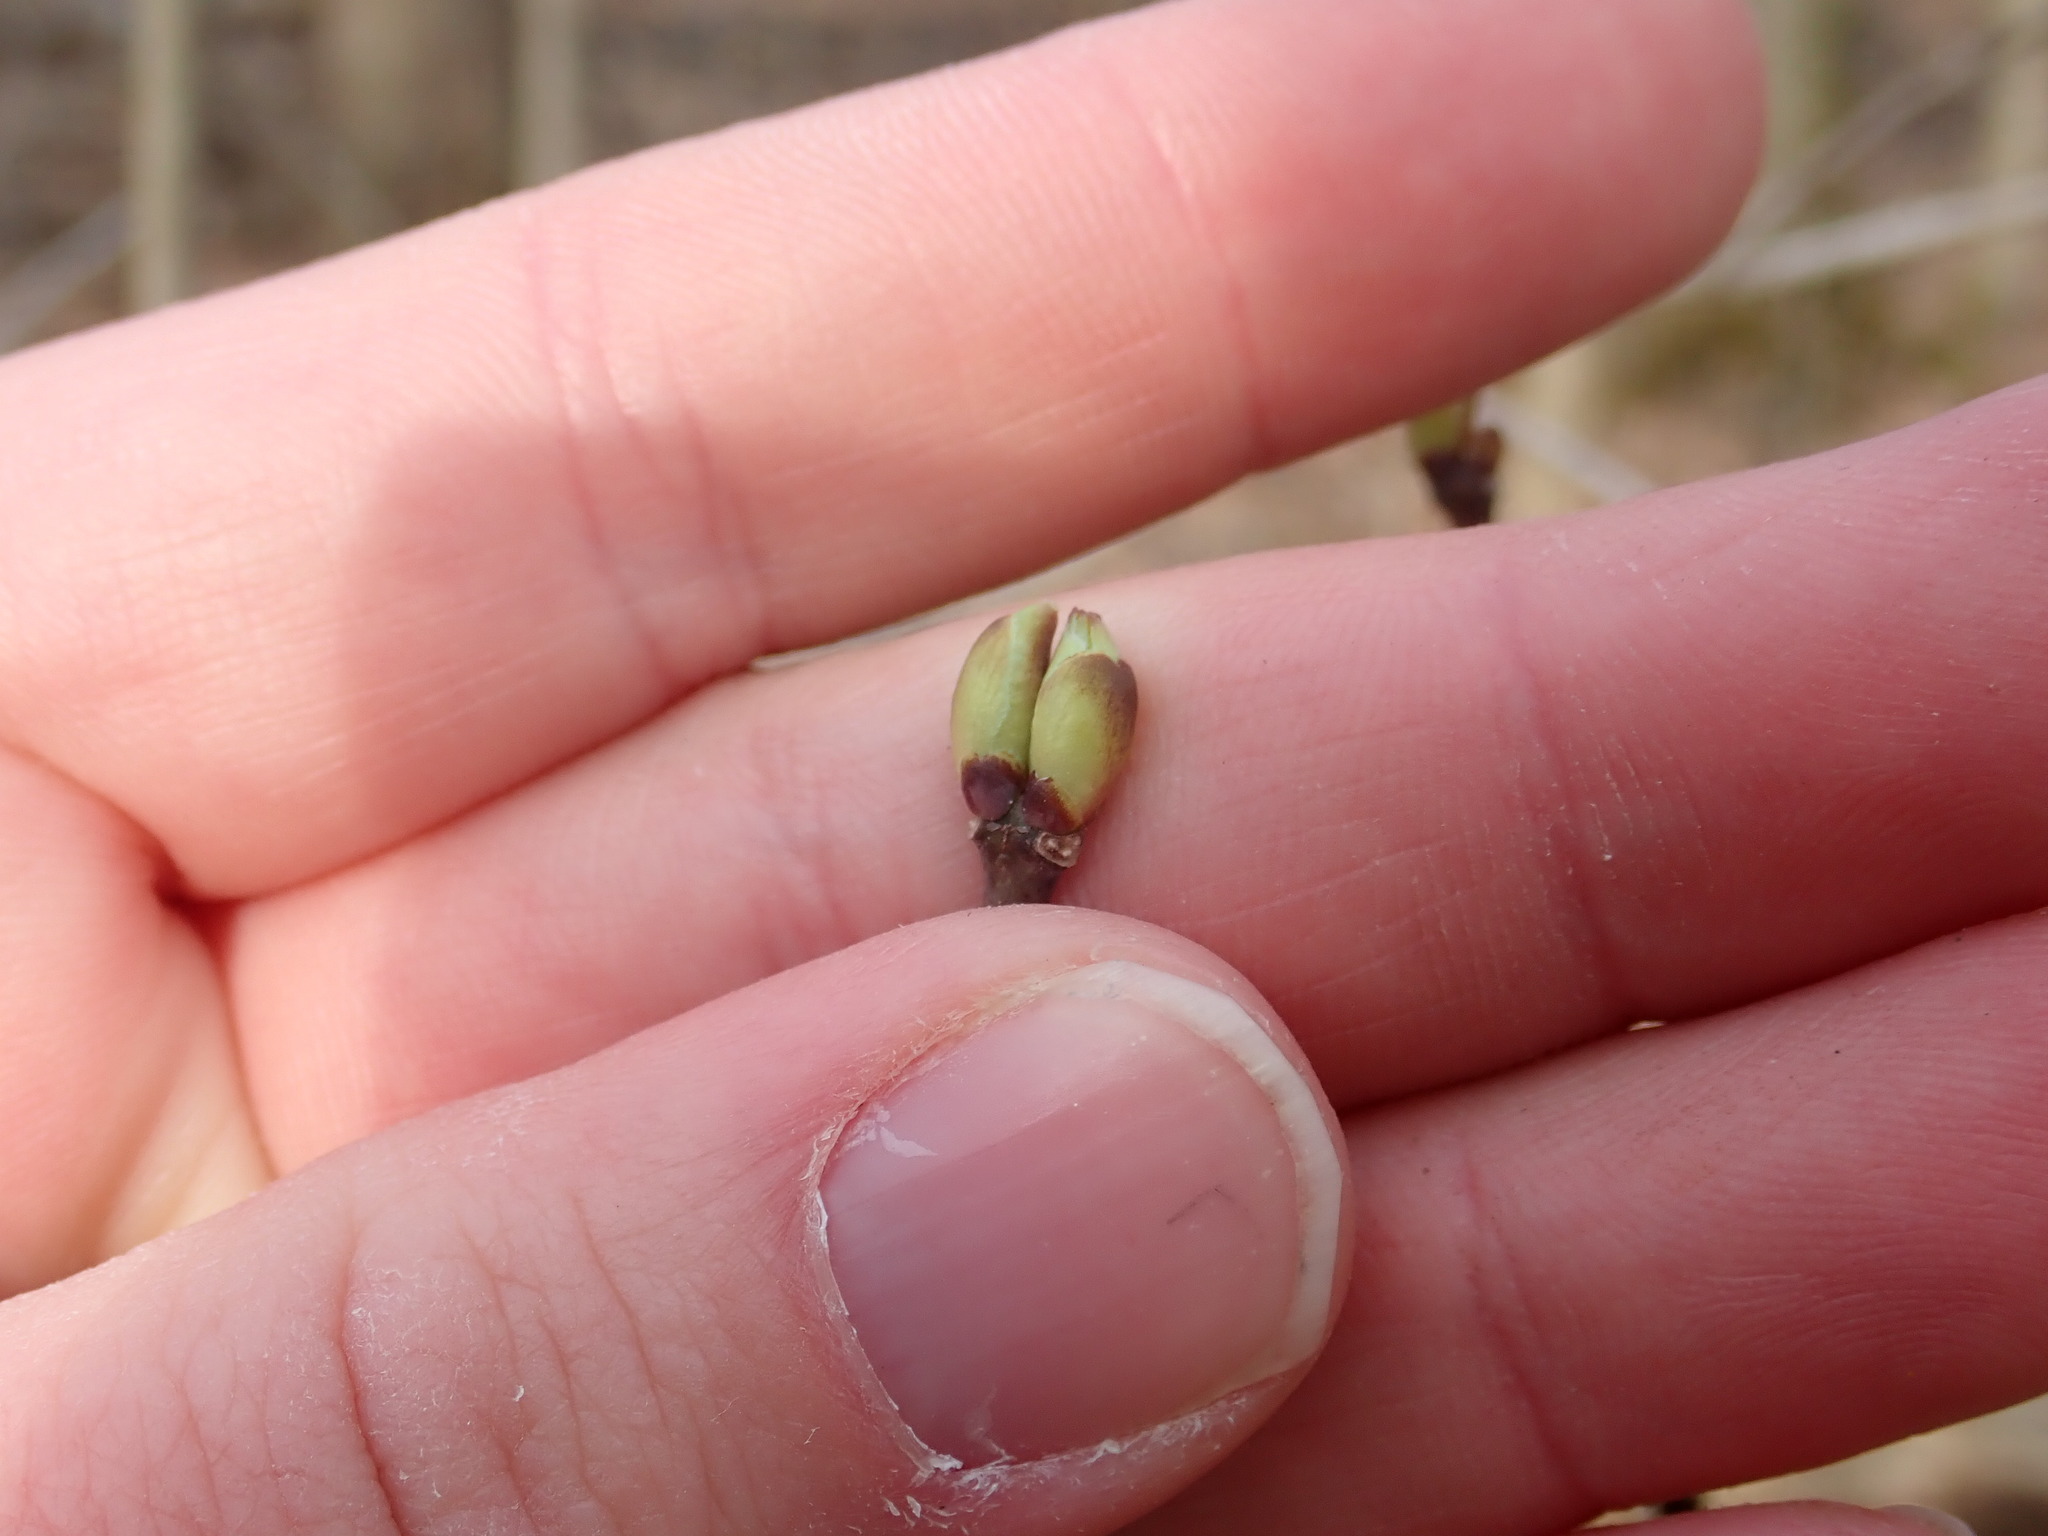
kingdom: Plantae
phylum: Tracheophyta
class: Magnoliopsida
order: Crossosomatales
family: Staphyleaceae
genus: Staphylea
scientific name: Staphylea trifolia
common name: American bladdernut
